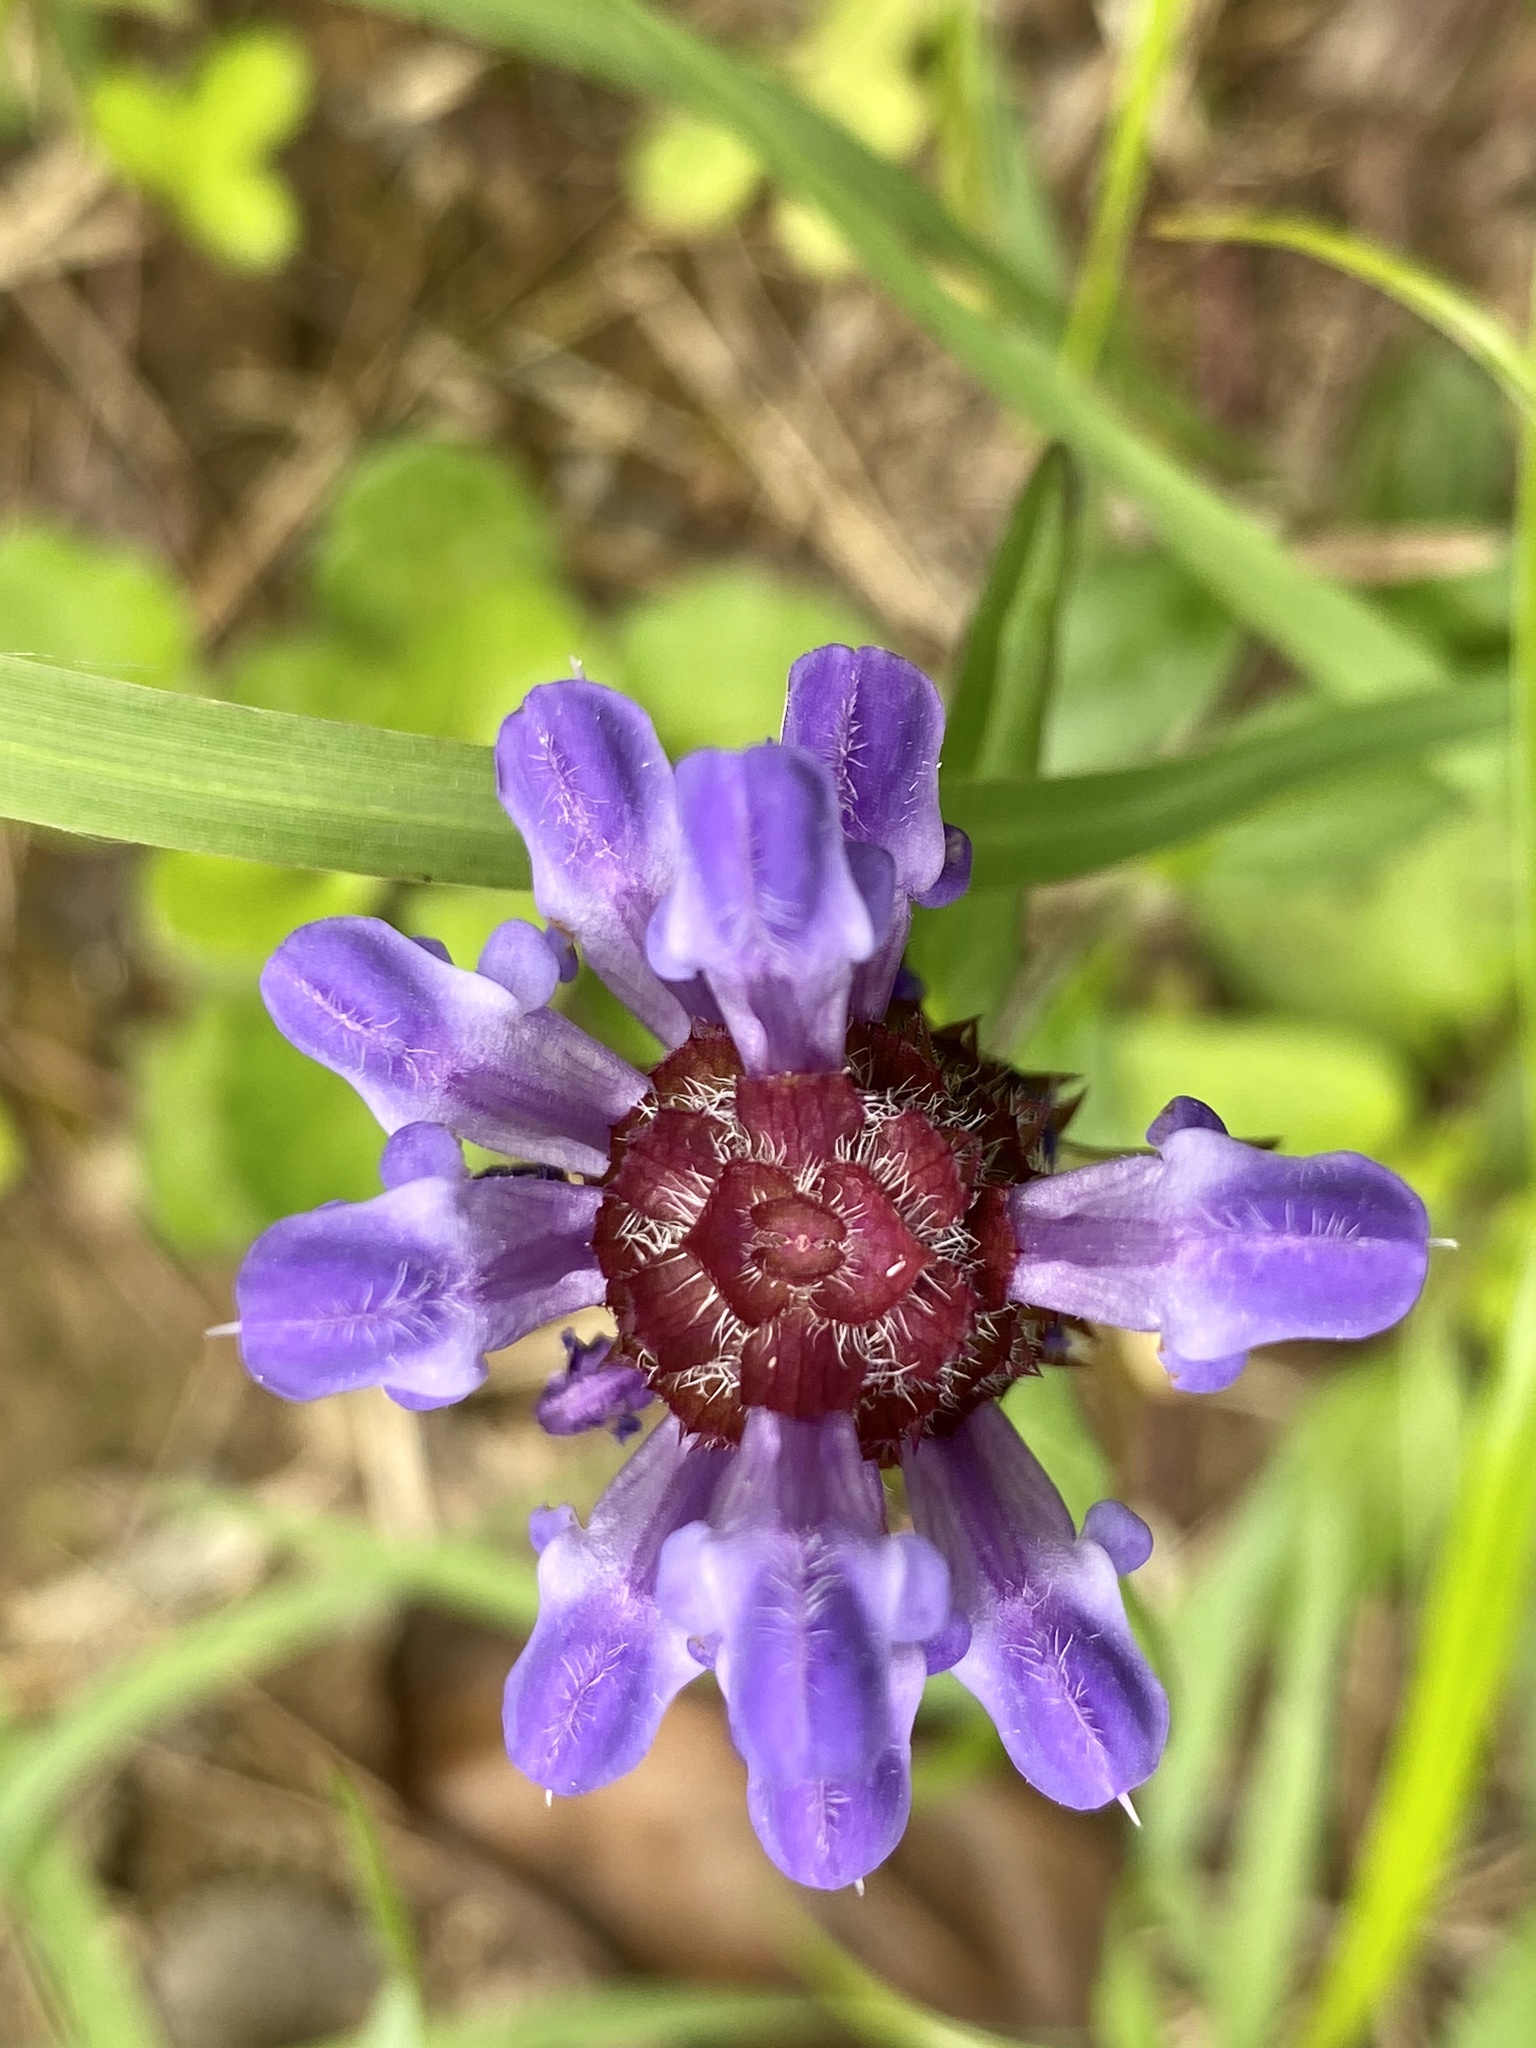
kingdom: Plantae
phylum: Tracheophyta
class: Magnoliopsida
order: Lamiales
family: Lamiaceae
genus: Prunella
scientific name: Prunella vulgaris
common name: Heal-all
